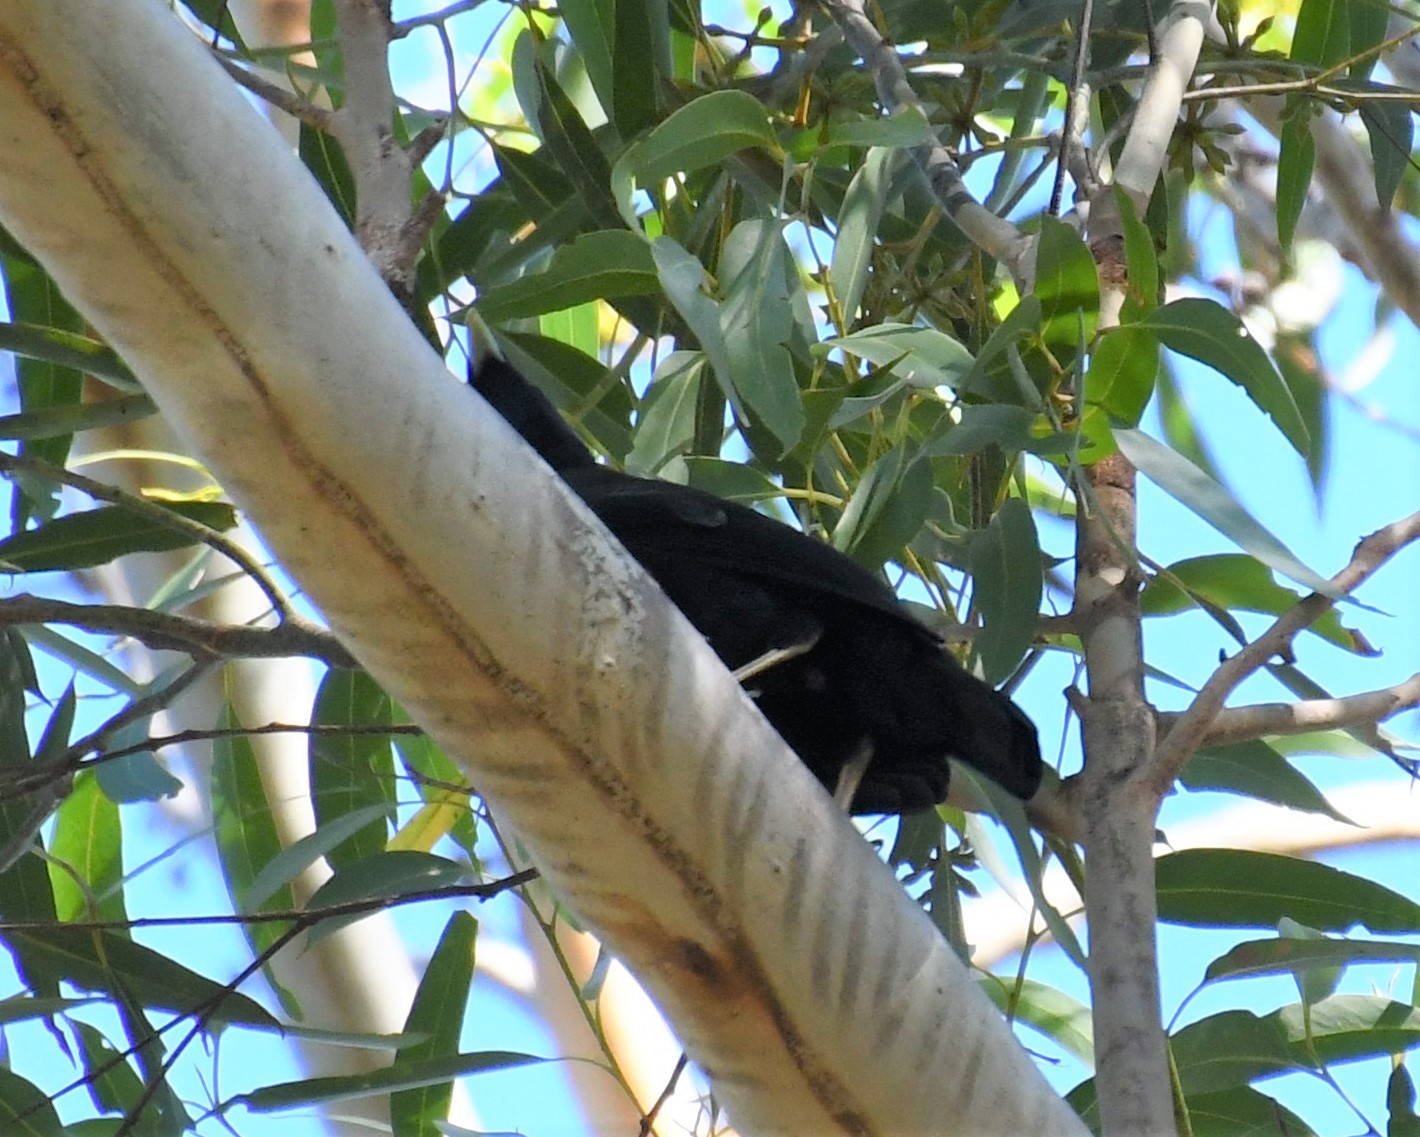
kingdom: Animalia
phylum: Chordata
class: Aves
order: Passeriformes
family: Ptilonorhynchidae
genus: Ptilonorhynchus
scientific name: Ptilonorhynchus violaceus
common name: Satin bowerbird
